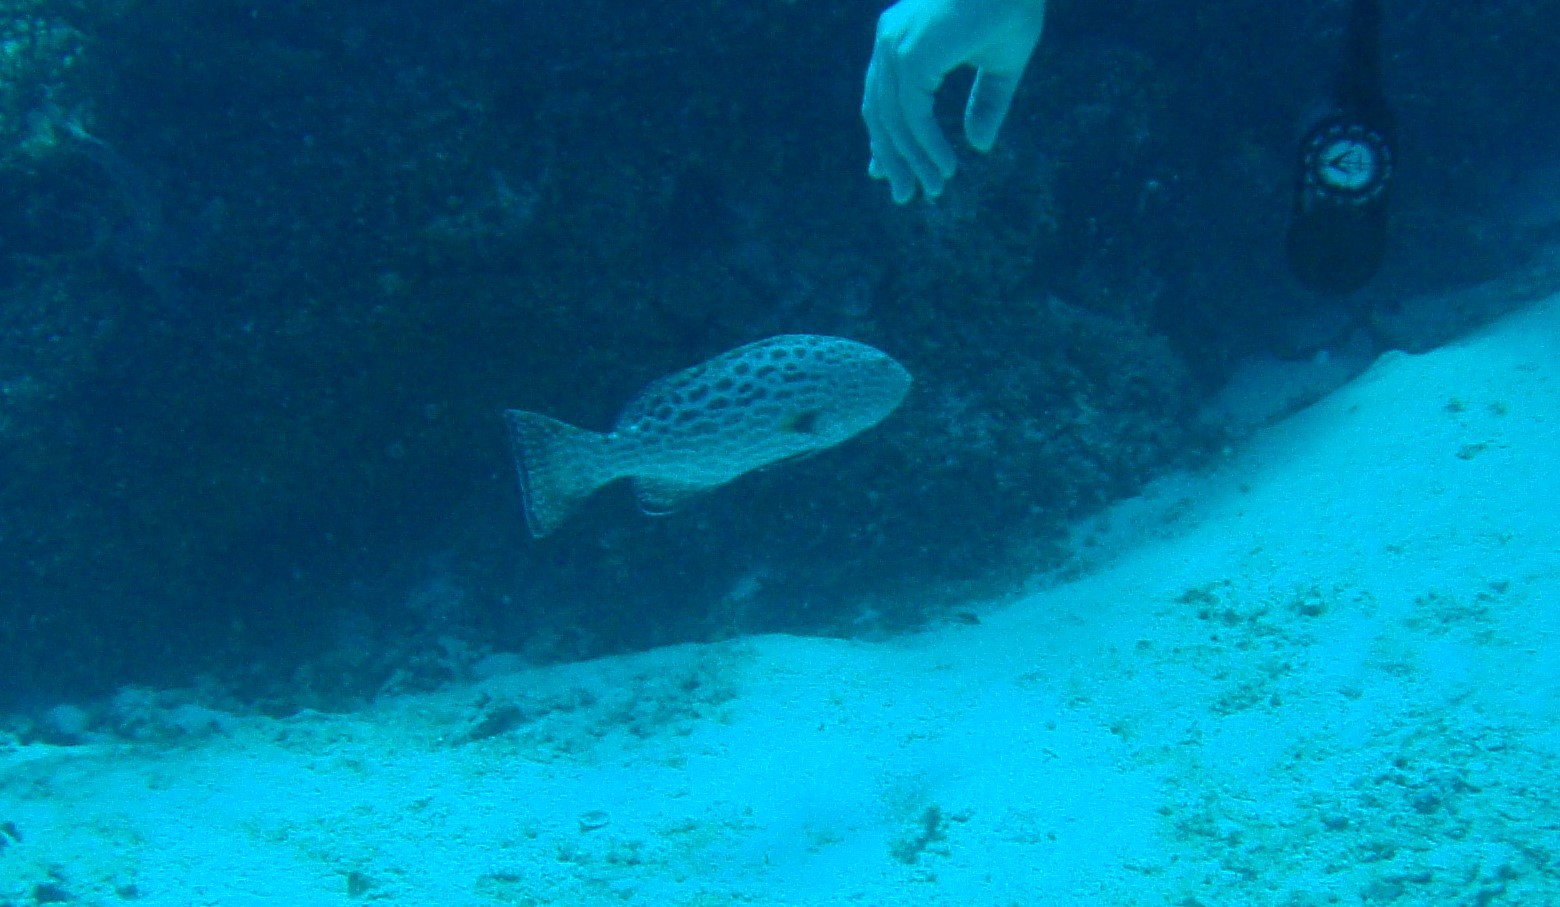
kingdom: Animalia
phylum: Chordata
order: Perciformes
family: Serranidae
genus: Mycteroperca
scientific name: Mycteroperca venenosa
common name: Yellowfin grouper
